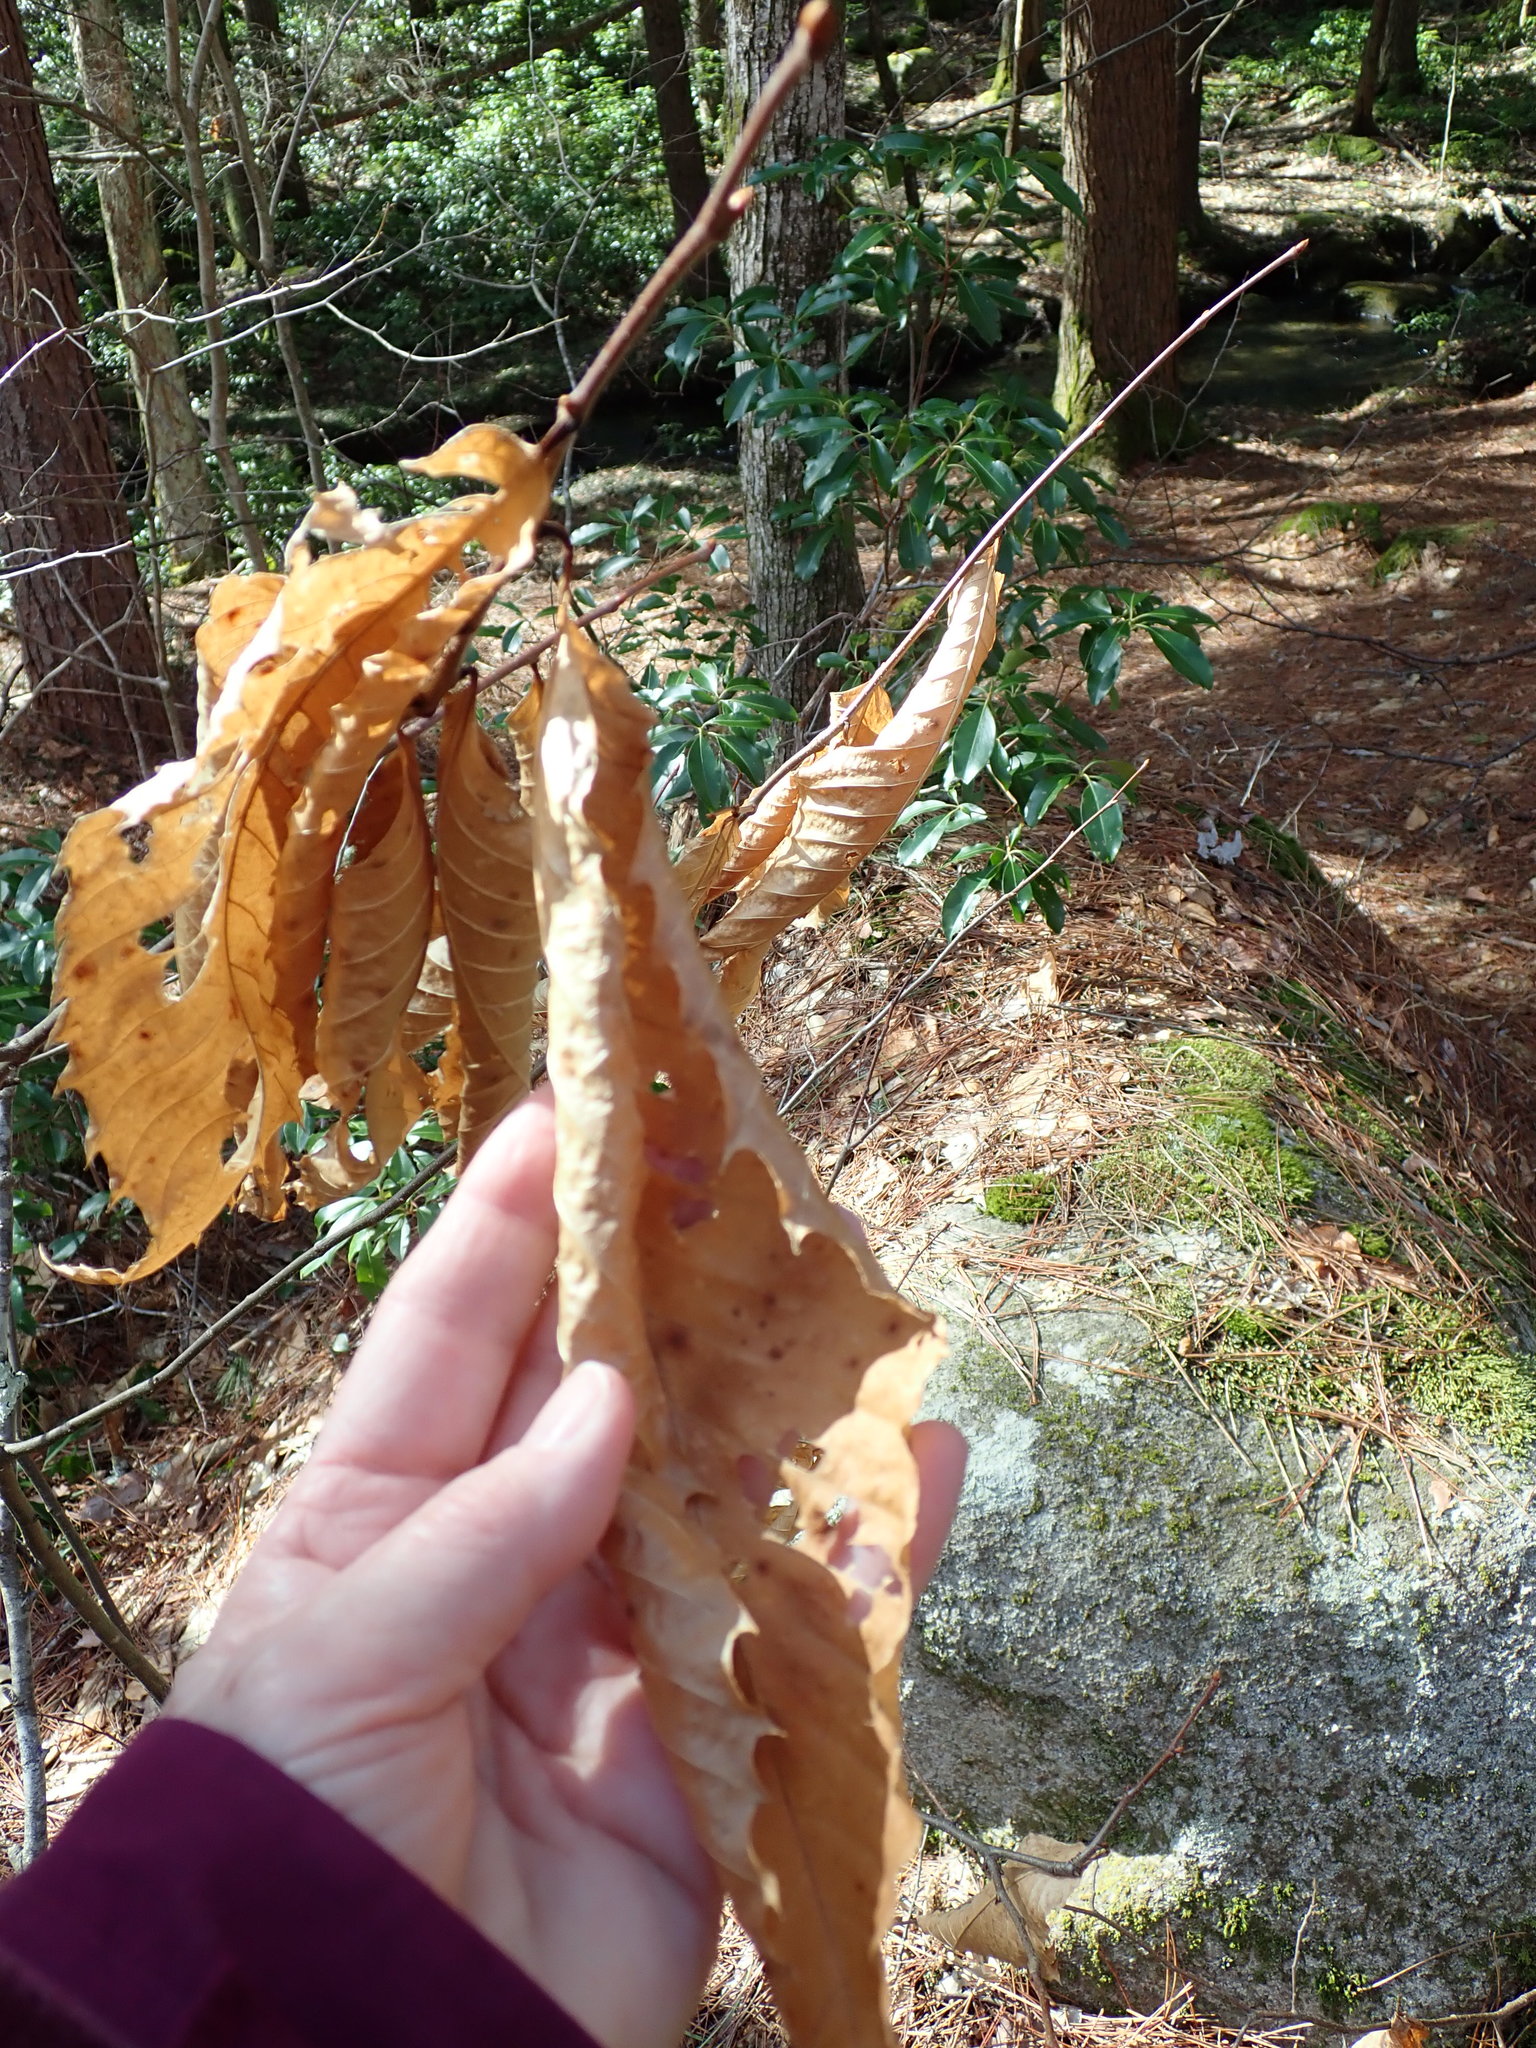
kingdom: Plantae
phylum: Tracheophyta
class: Magnoliopsida
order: Fagales
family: Fagaceae
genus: Castanea
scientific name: Castanea dentata
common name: American chestnut
